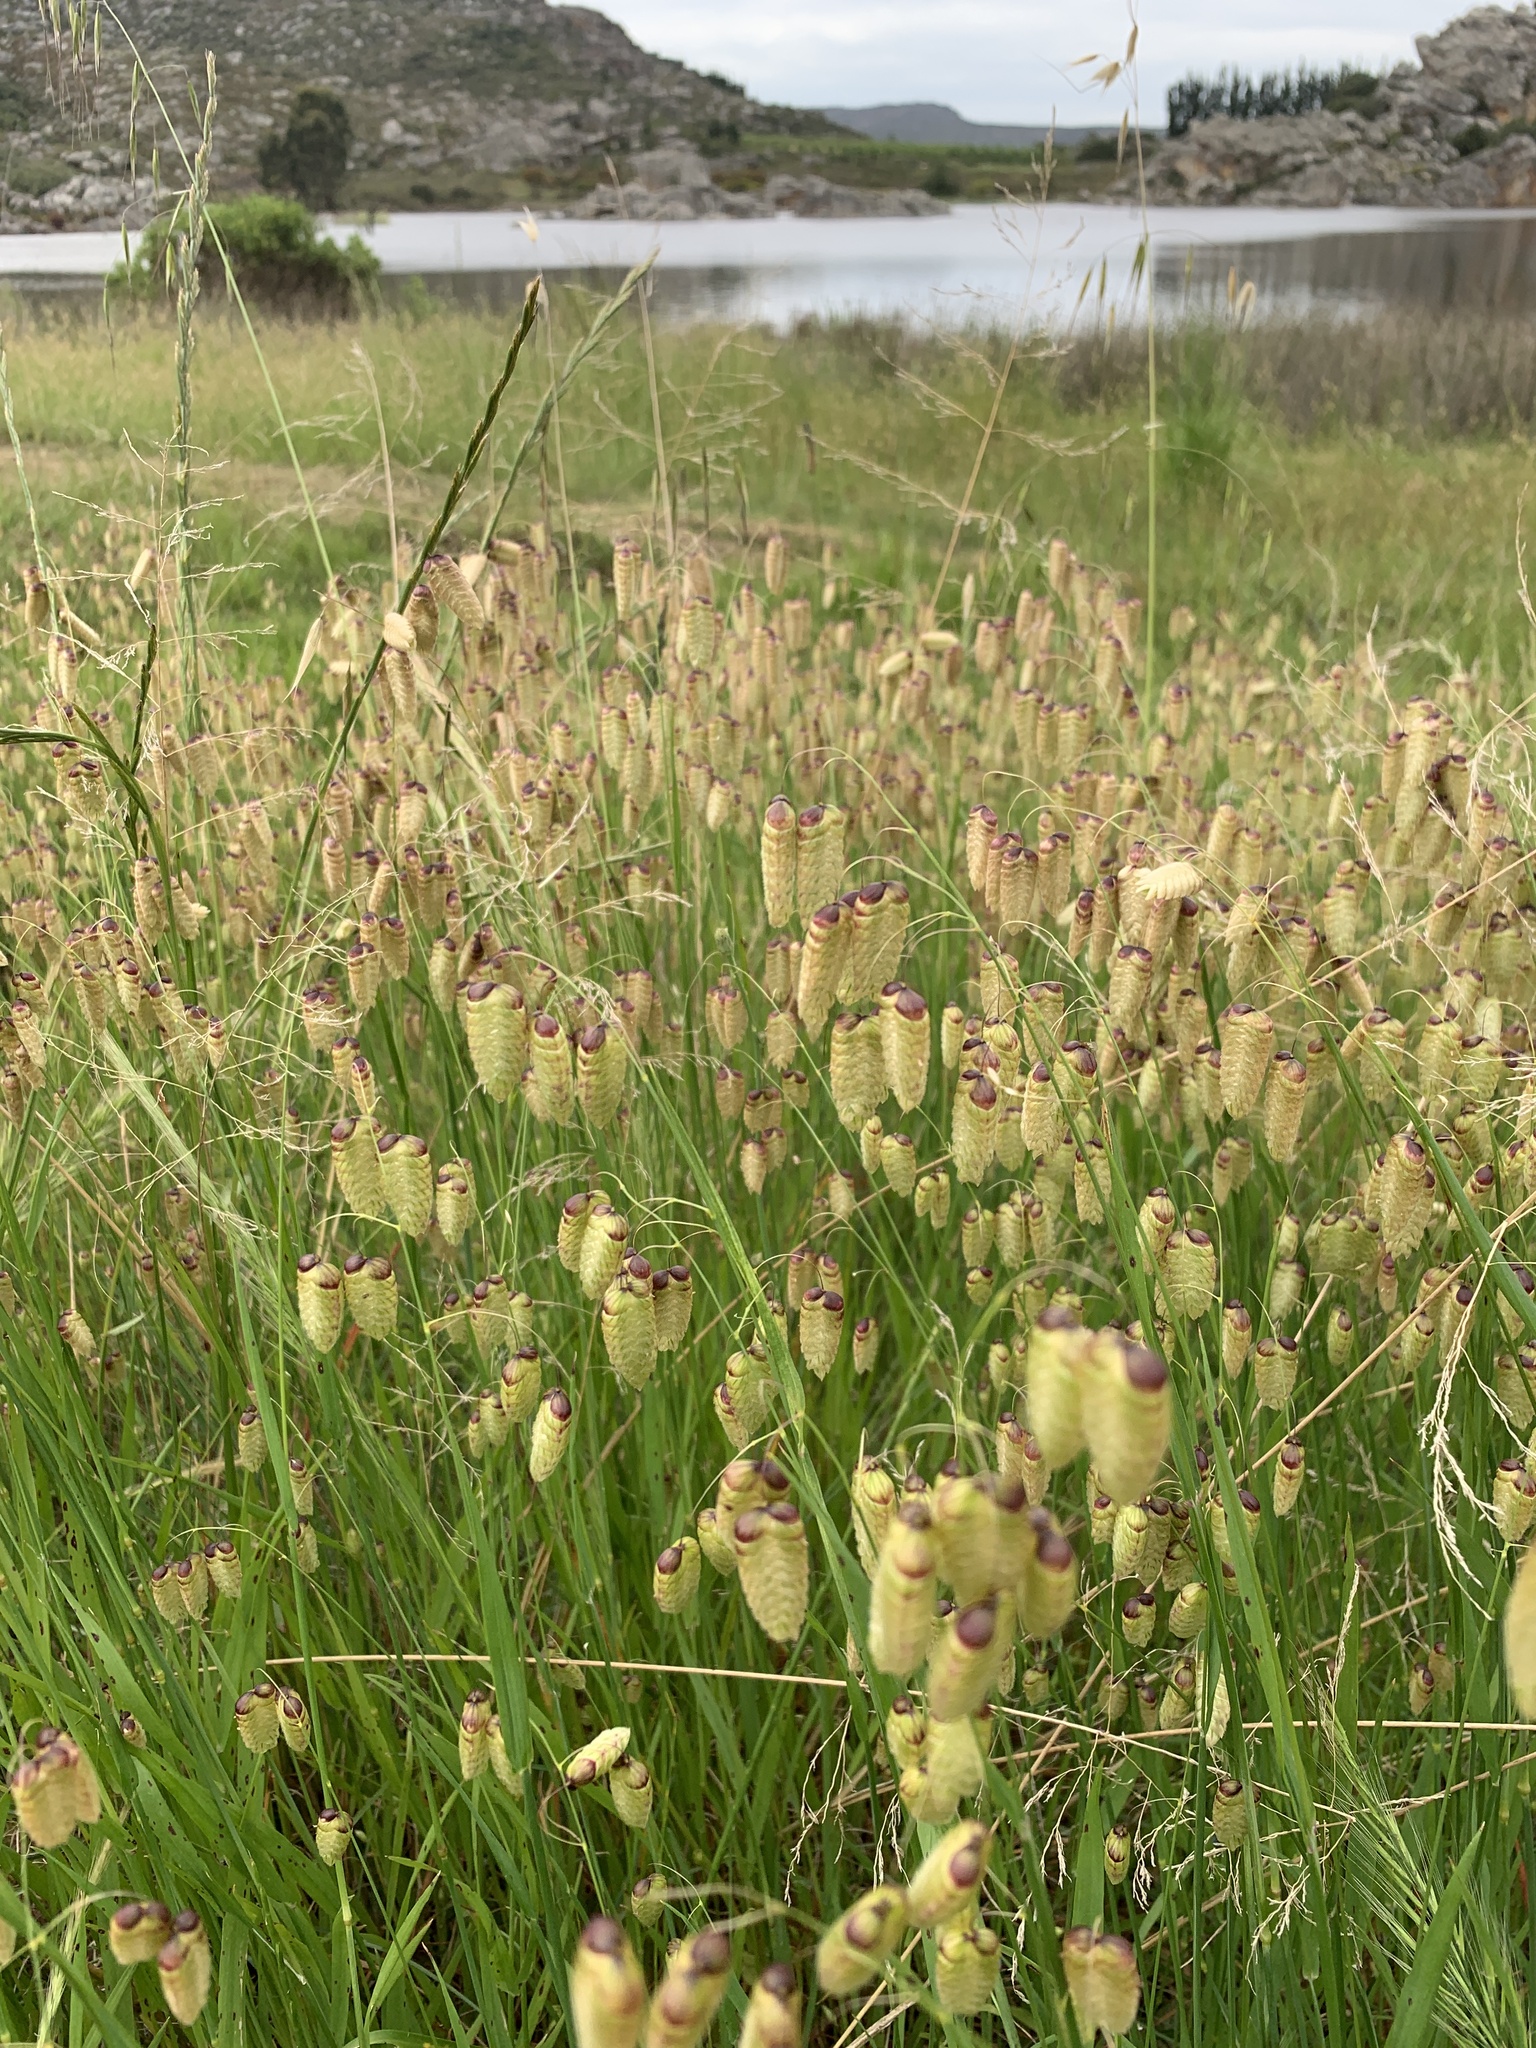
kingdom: Plantae
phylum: Tracheophyta
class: Liliopsida
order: Poales
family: Poaceae
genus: Briza
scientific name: Briza maxima
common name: Big quakinggrass
